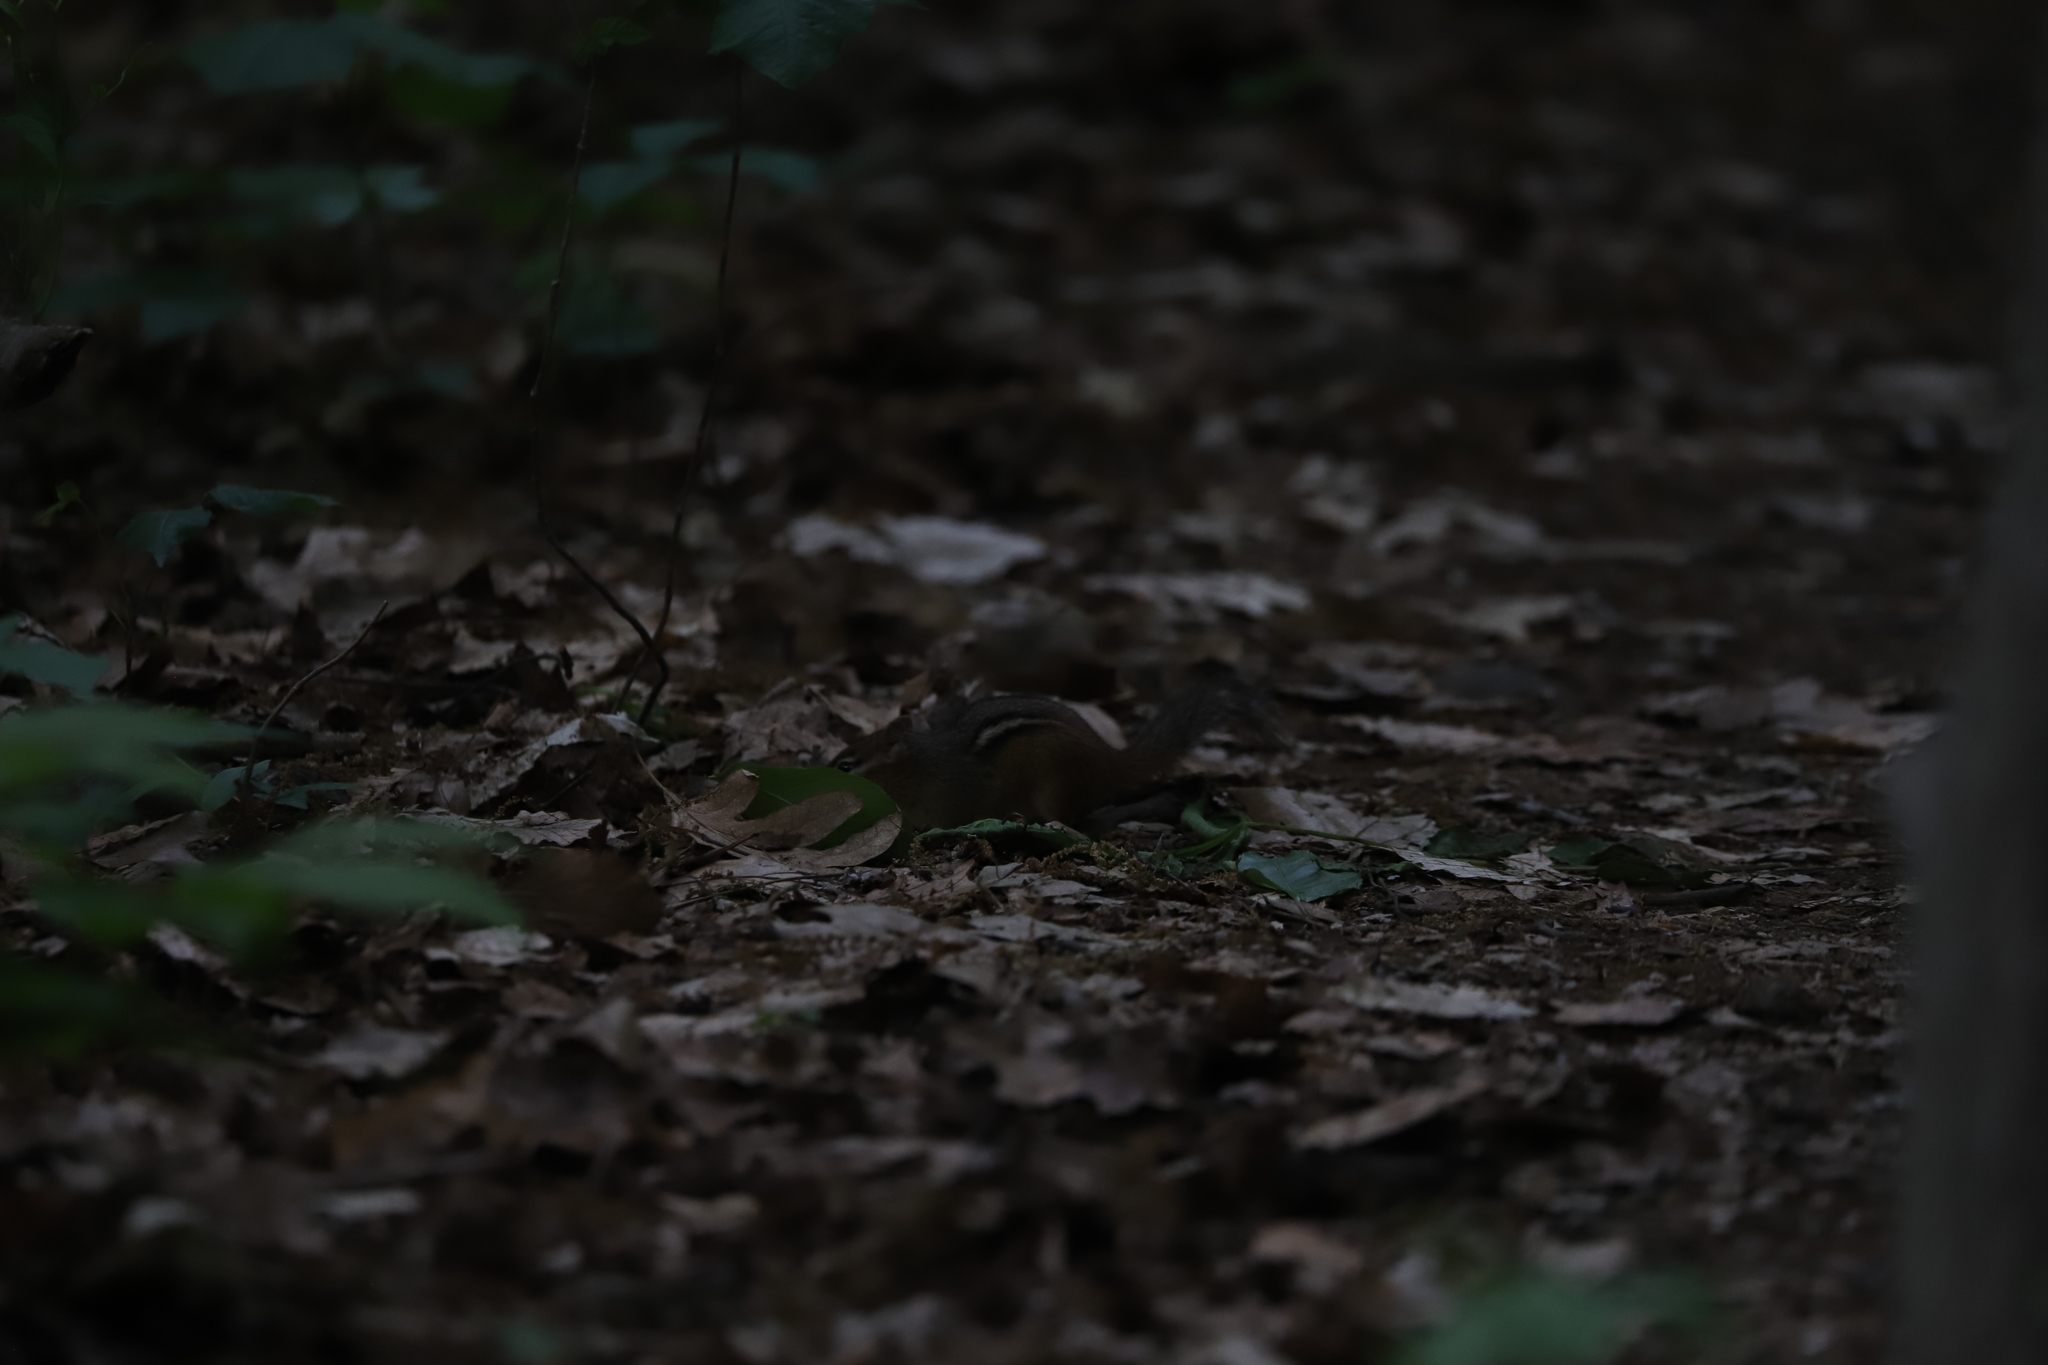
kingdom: Animalia
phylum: Chordata
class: Mammalia
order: Rodentia
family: Sciuridae
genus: Tamias
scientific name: Tamias striatus
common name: Eastern chipmunk
